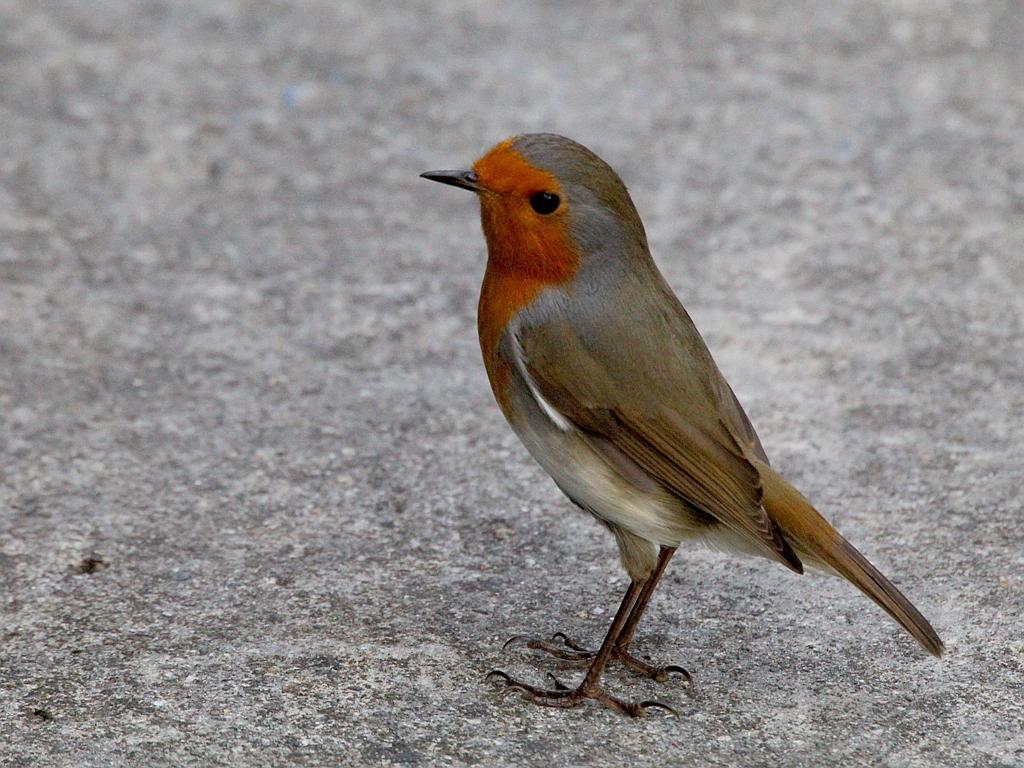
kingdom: Animalia
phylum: Chordata
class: Aves
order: Passeriformes
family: Muscicapidae
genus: Erithacus
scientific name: Erithacus rubecula
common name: European robin
